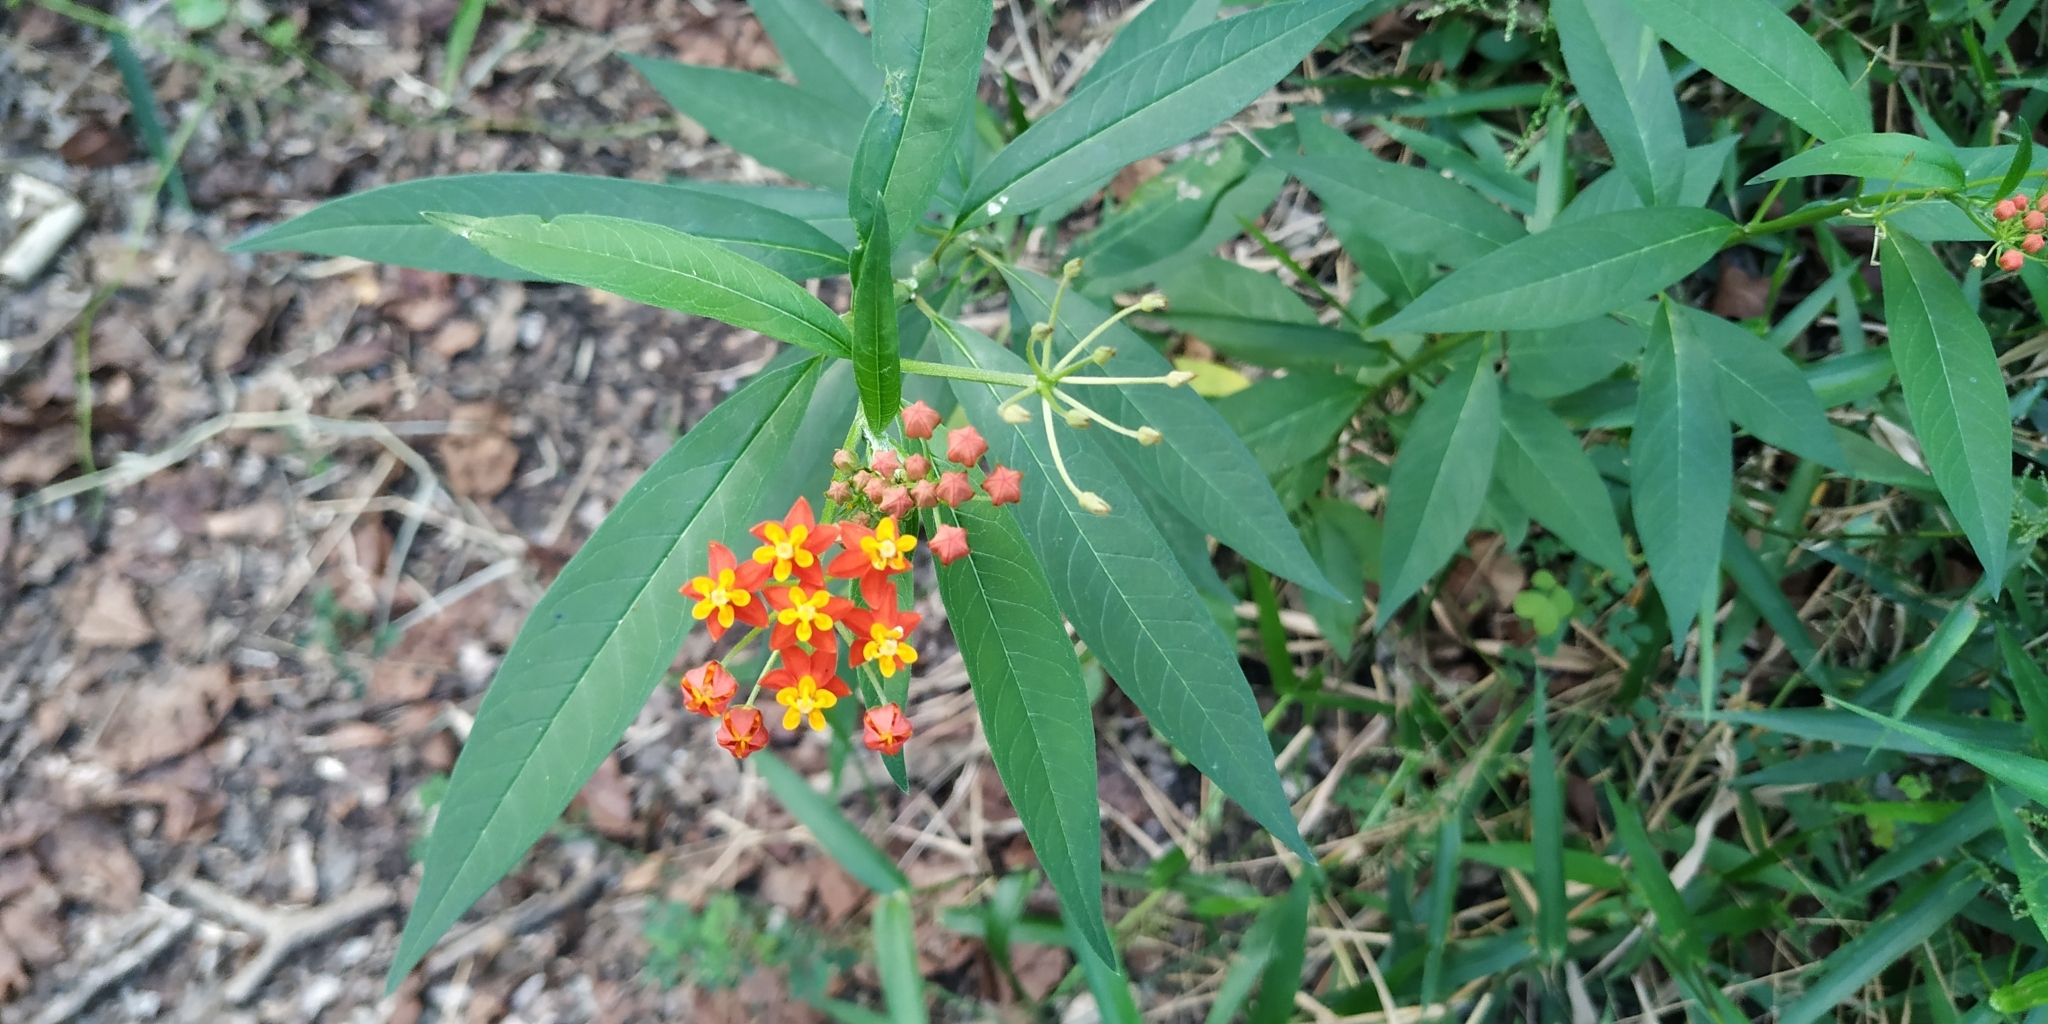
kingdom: Plantae
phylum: Tracheophyta
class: Magnoliopsida
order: Gentianales
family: Apocynaceae
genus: Asclepias
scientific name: Asclepias curassavica
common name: Bloodflower
